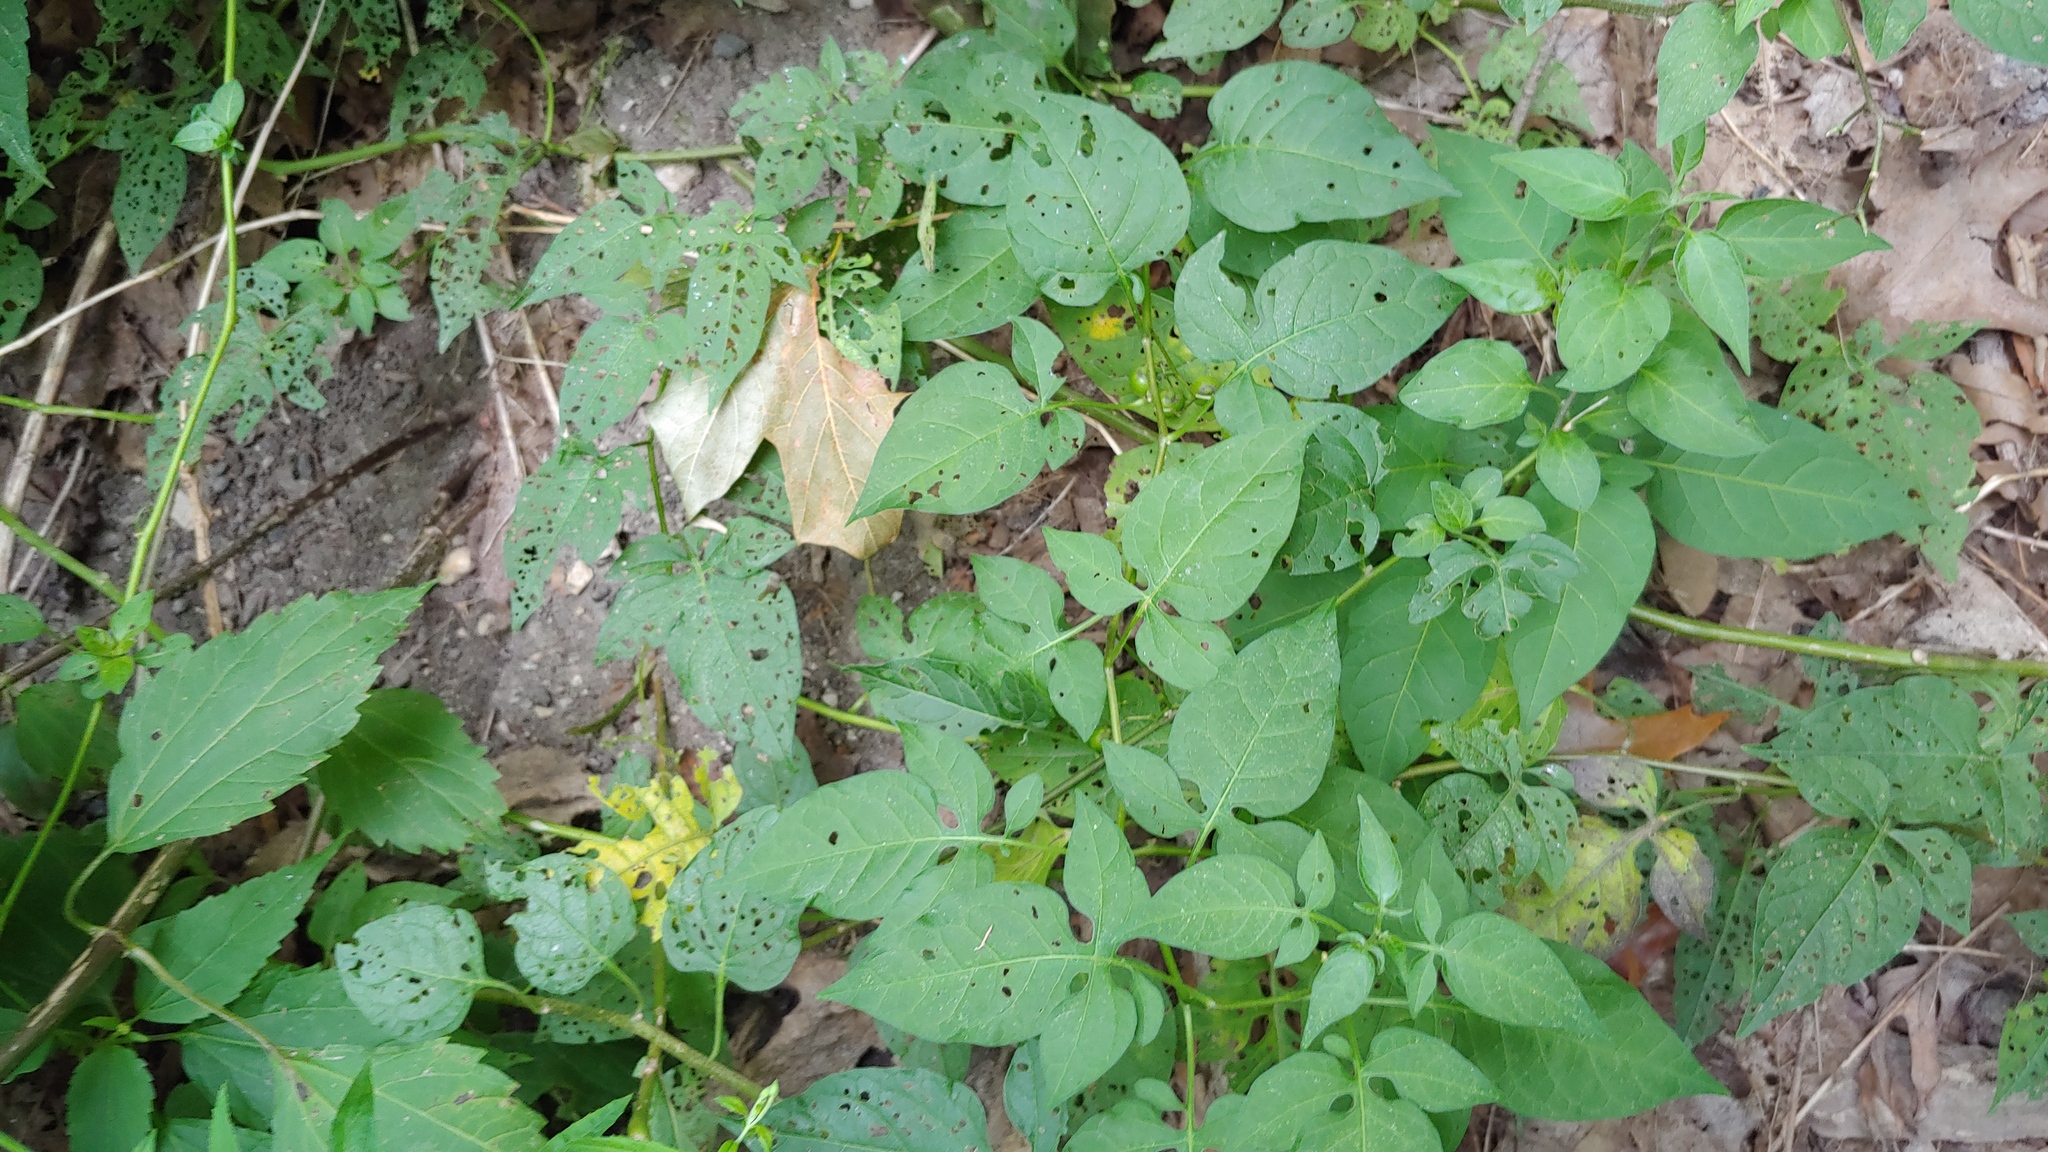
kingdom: Plantae
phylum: Tracheophyta
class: Magnoliopsida
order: Solanales
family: Solanaceae
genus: Solanum
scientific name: Solanum dulcamara
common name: Climbing nightshade
